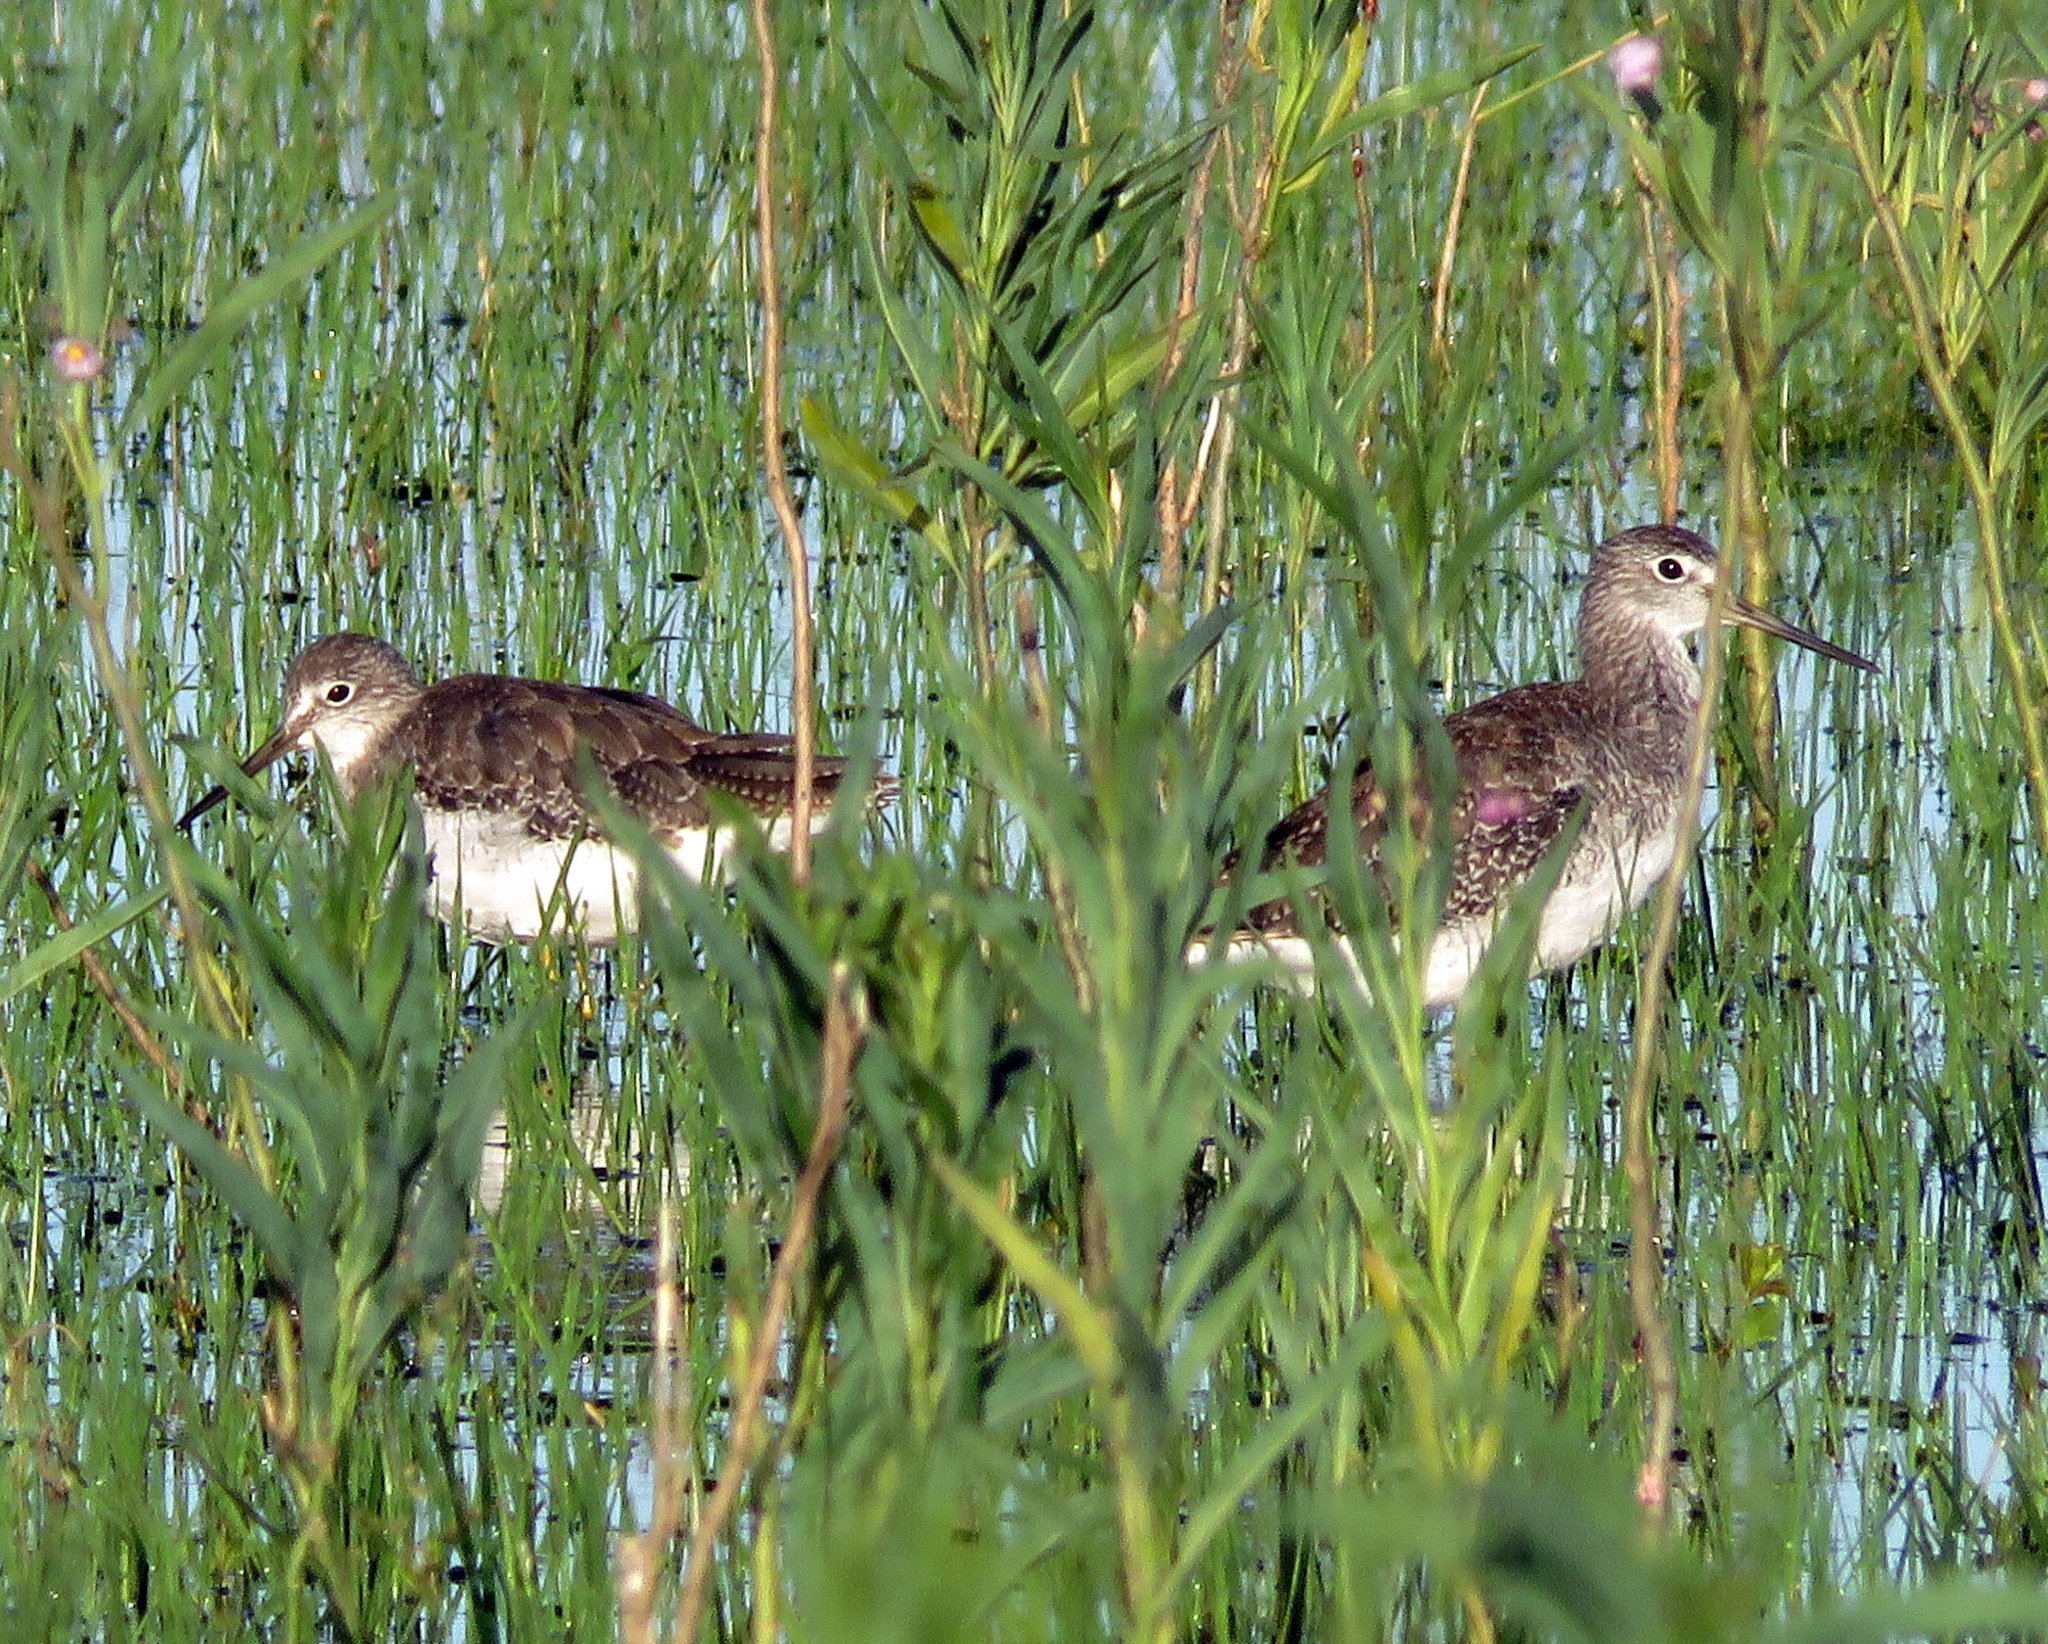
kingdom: Animalia
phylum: Chordata
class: Aves
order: Charadriiformes
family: Scolopacidae
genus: Tringa
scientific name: Tringa melanoleuca
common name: Greater yellowlegs
